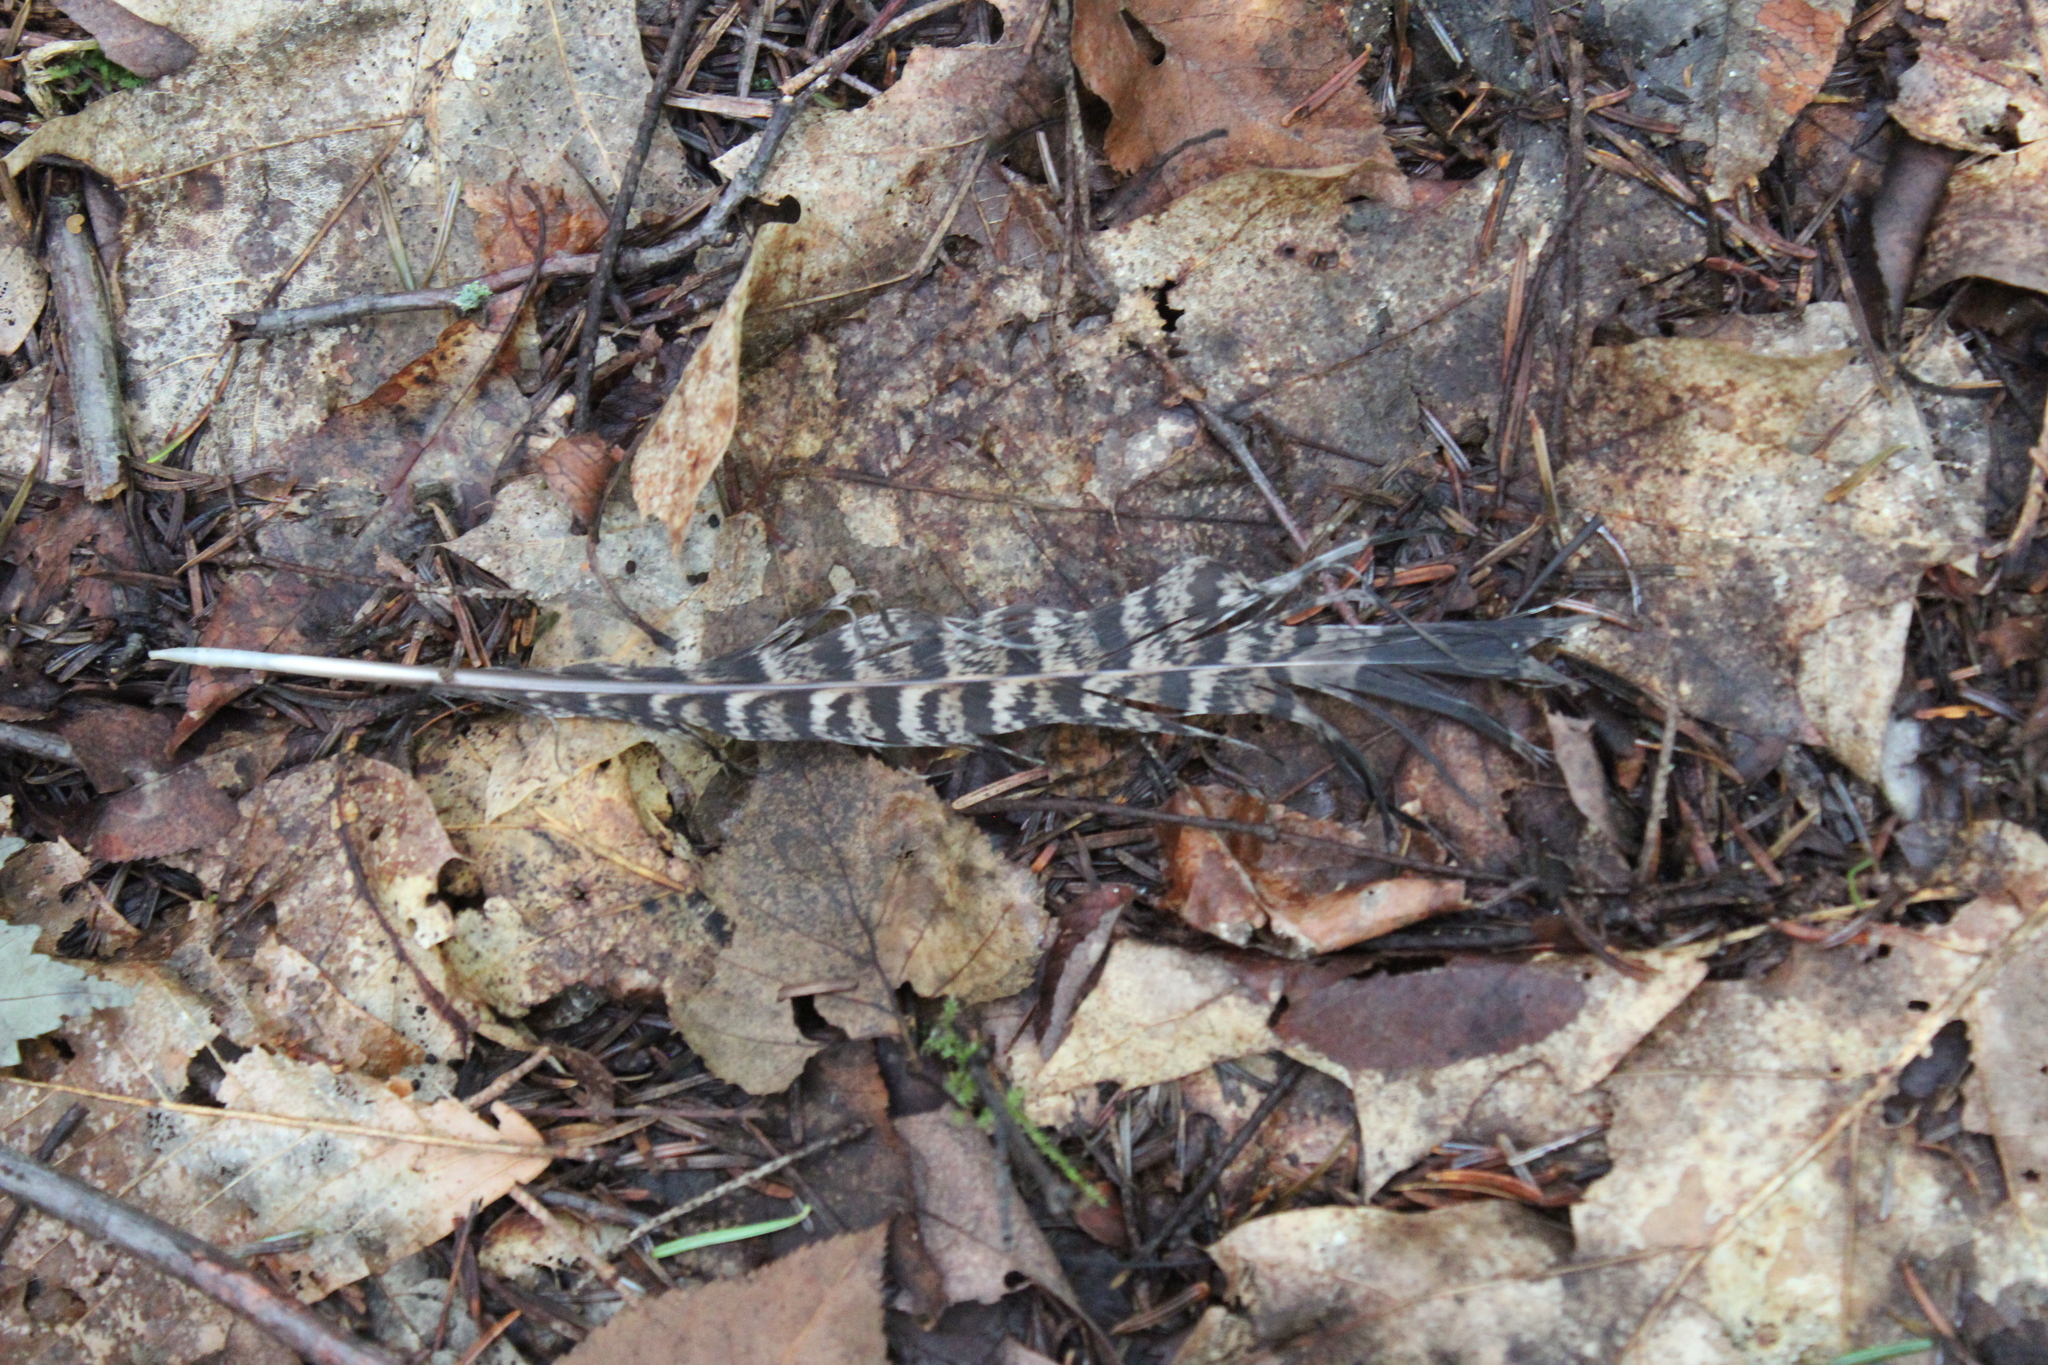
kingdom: Animalia
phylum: Chordata
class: Aves
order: Galliformes
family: Phasianidae
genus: Bonasa
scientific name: Bonasa umbellus
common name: Ruffed grouse
